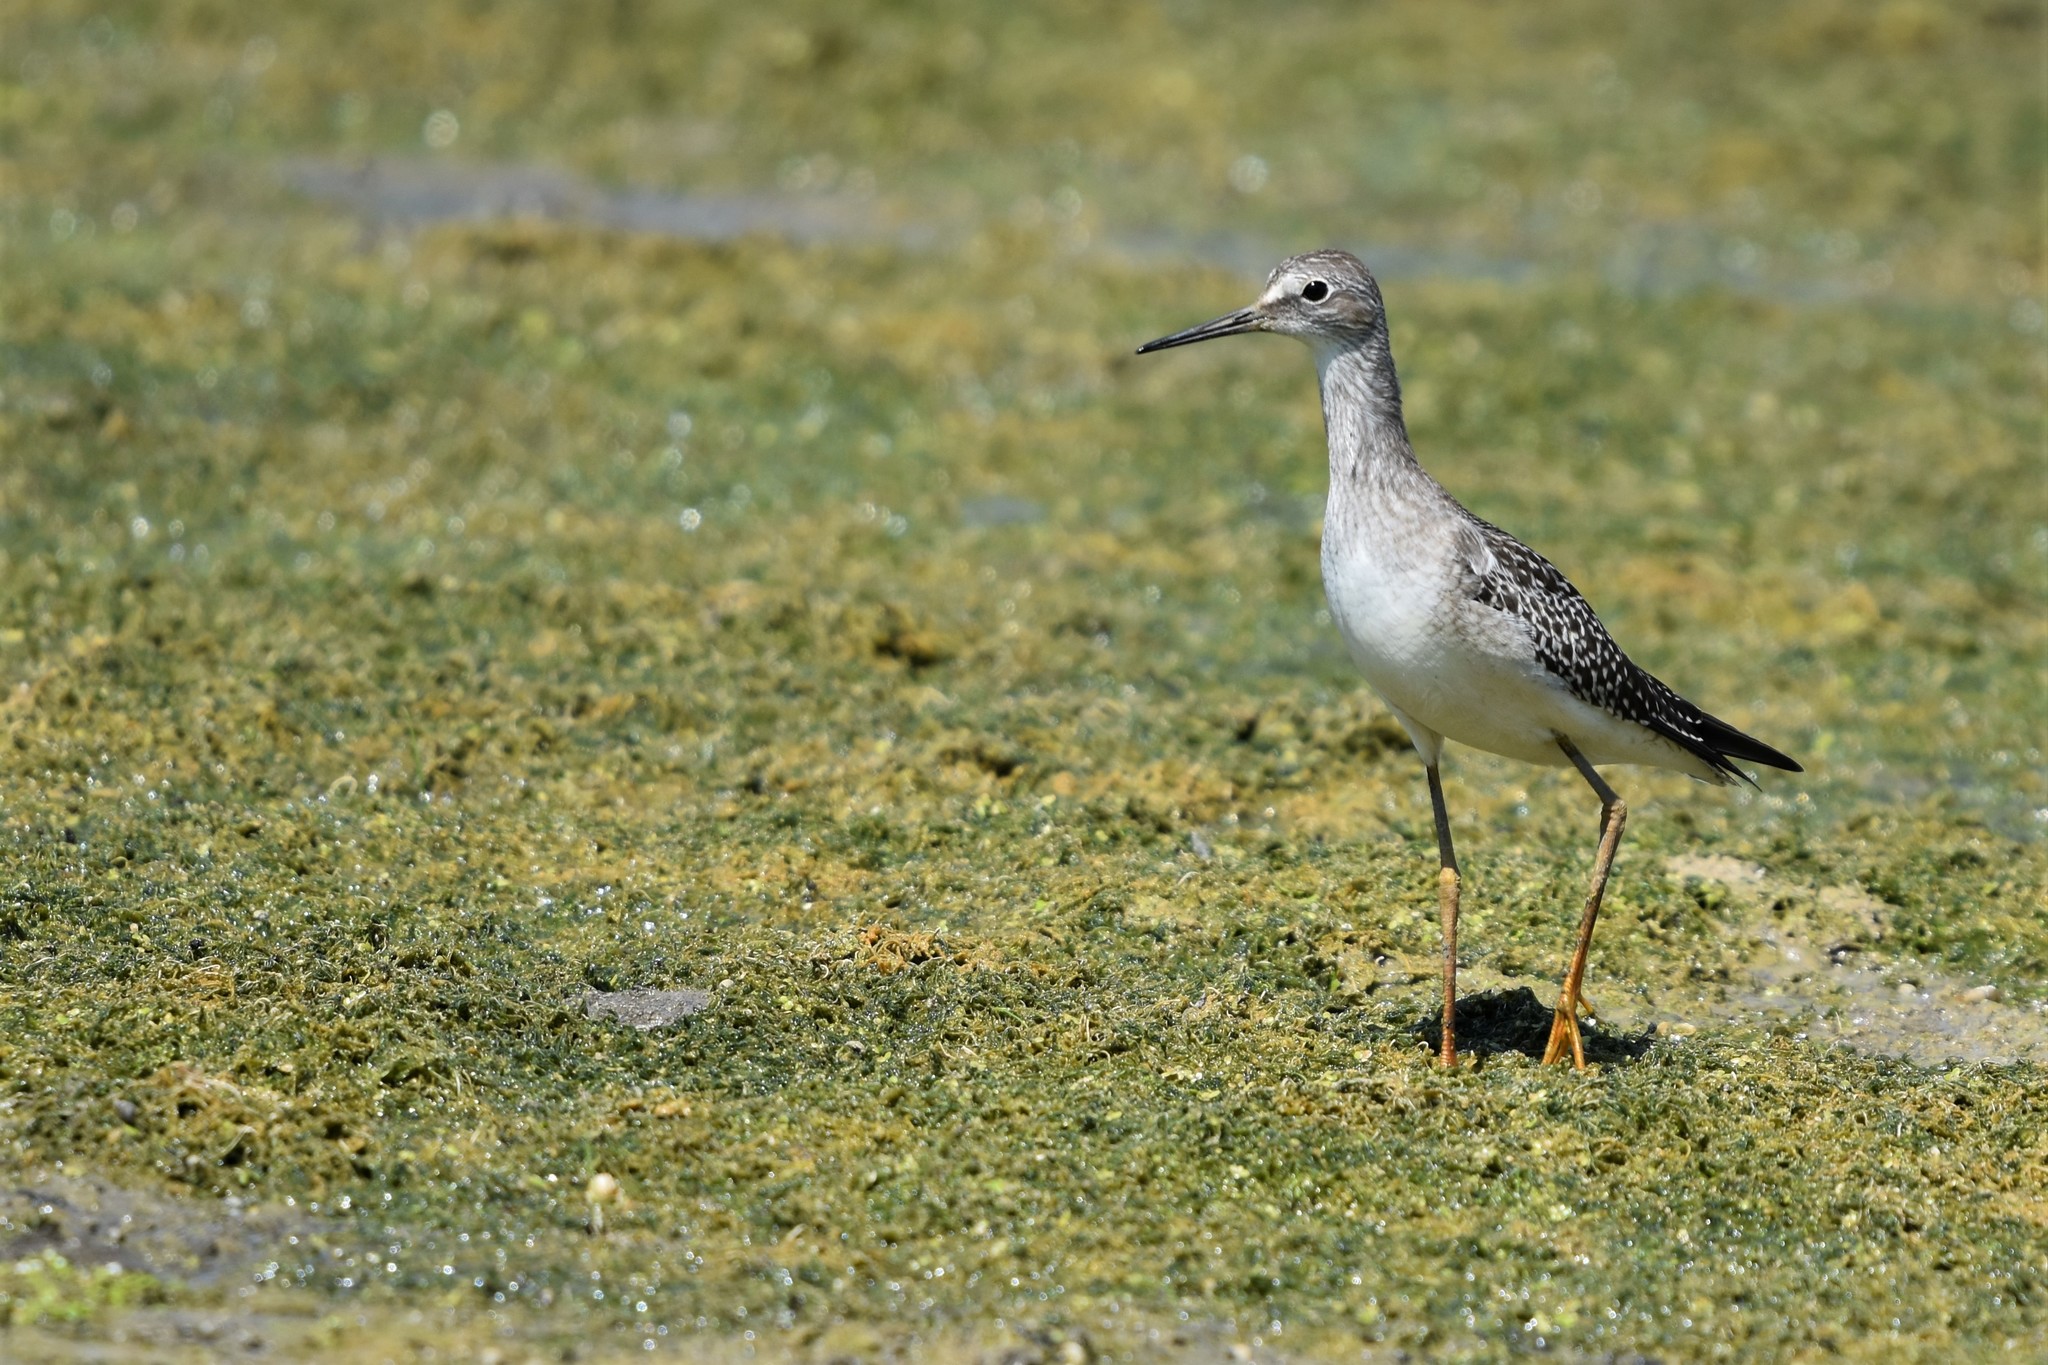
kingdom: Animalia
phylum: Chordata
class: Aves
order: Charadriiformes
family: Scolopacidae
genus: Tringa
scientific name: Tringa flavipes
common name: Lesser yellowlegs
